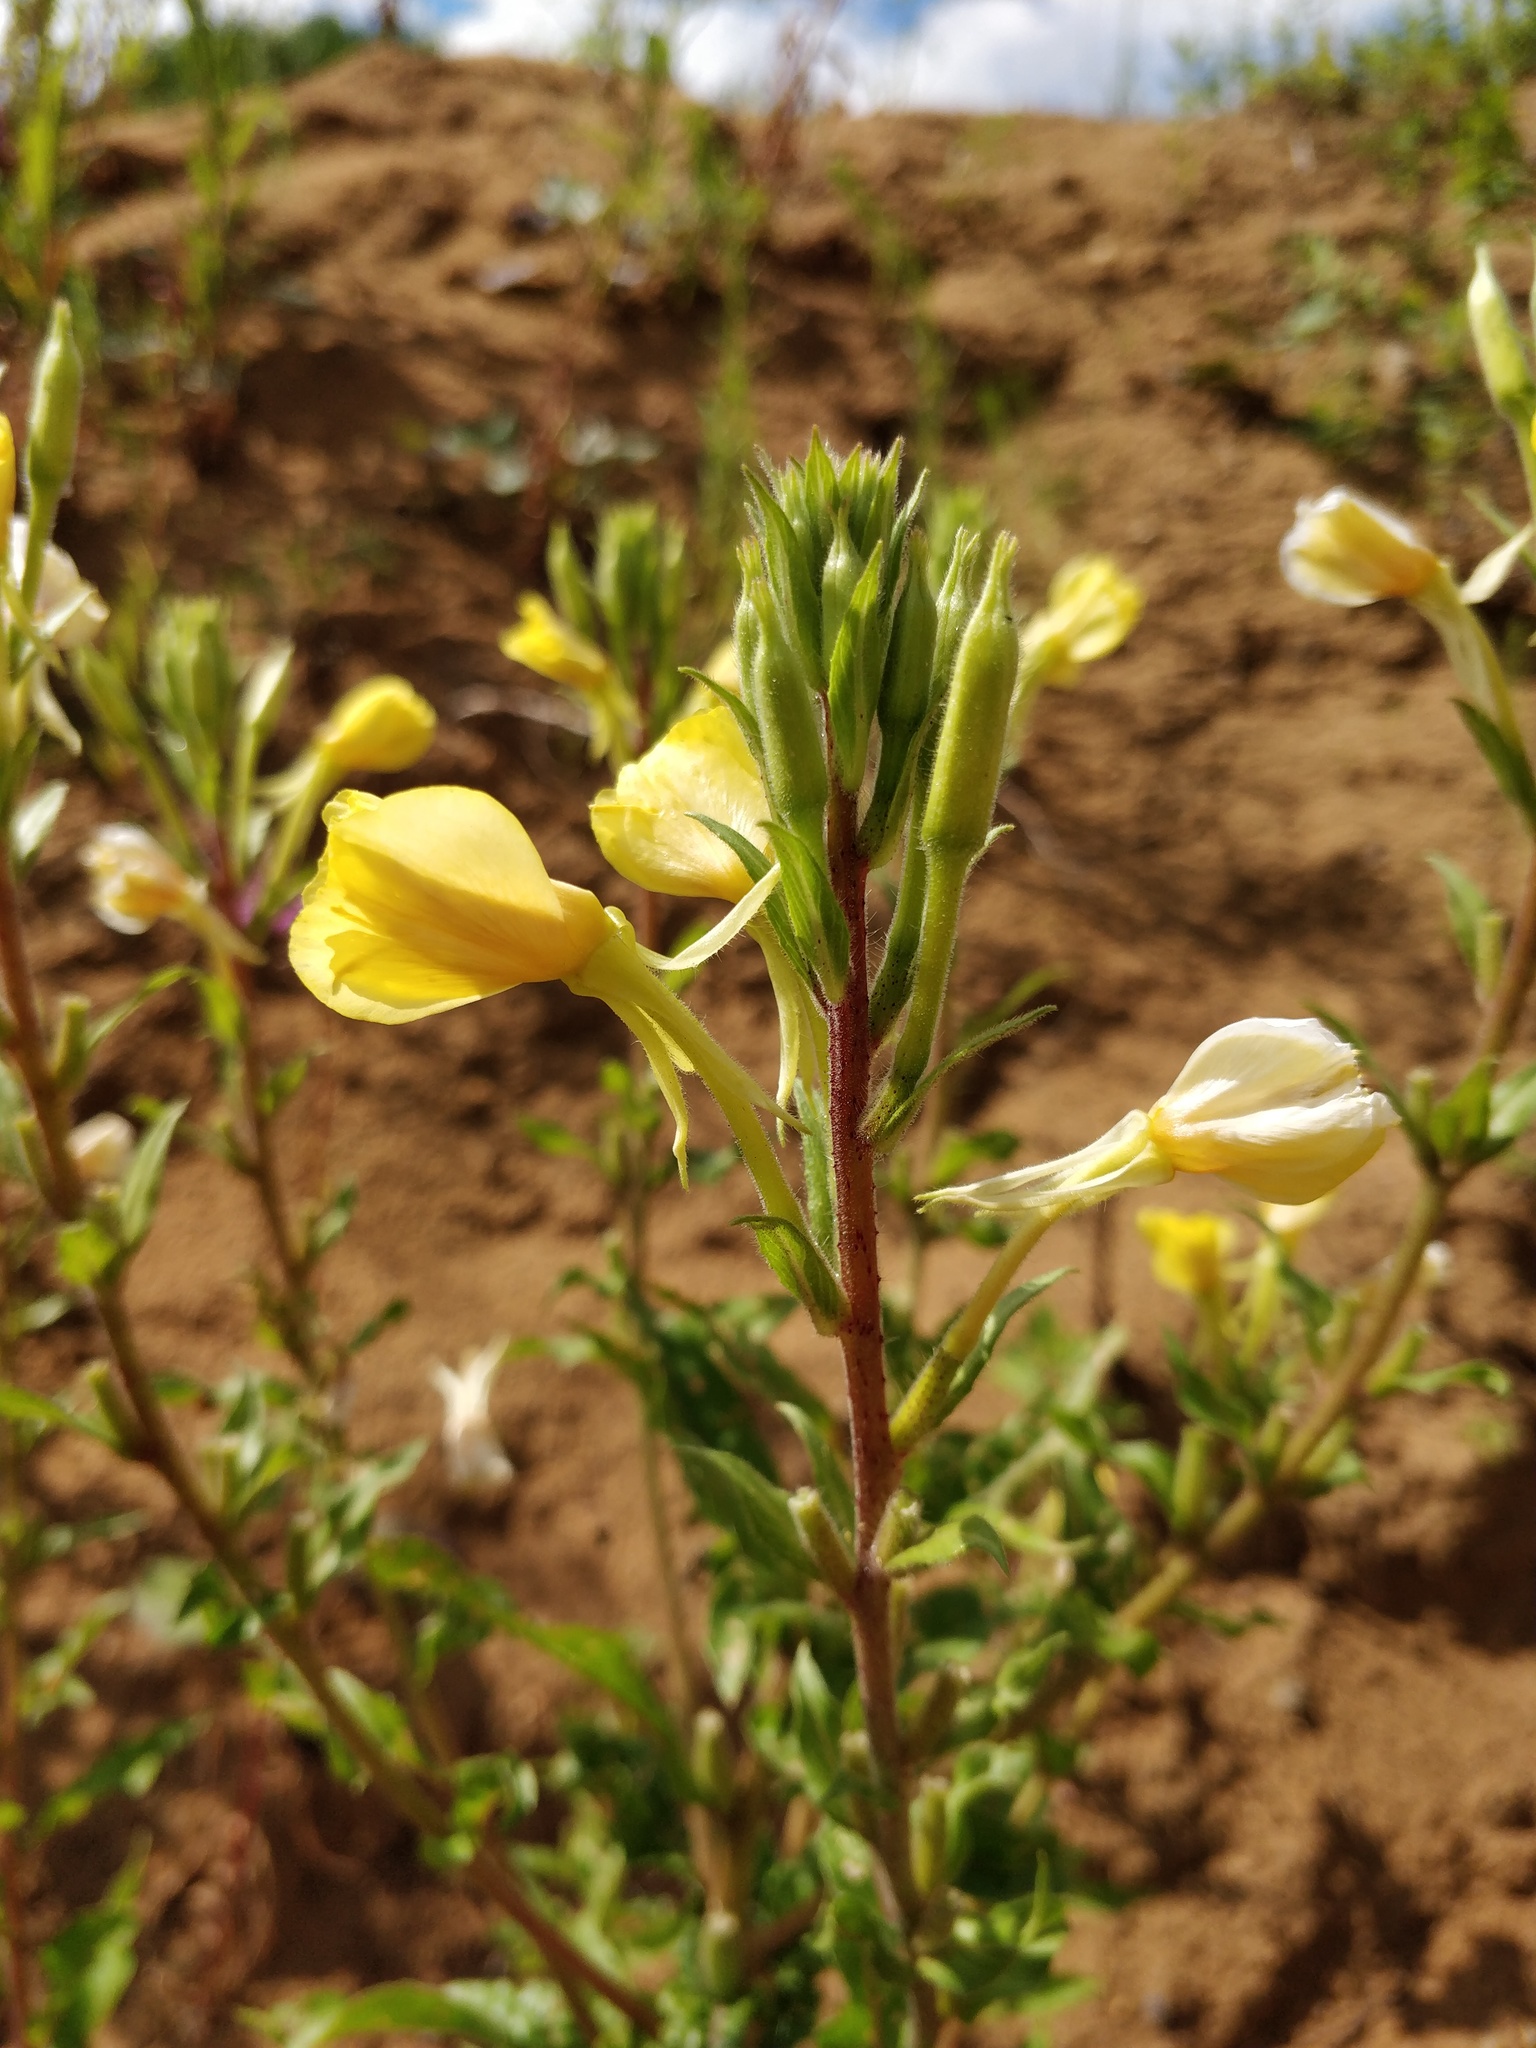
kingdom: Plantae
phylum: Tracheophyta
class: Magnoliopsida
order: Myrtales
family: Onagraceae
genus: Oenothera
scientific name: Oenothera rubricaulis
